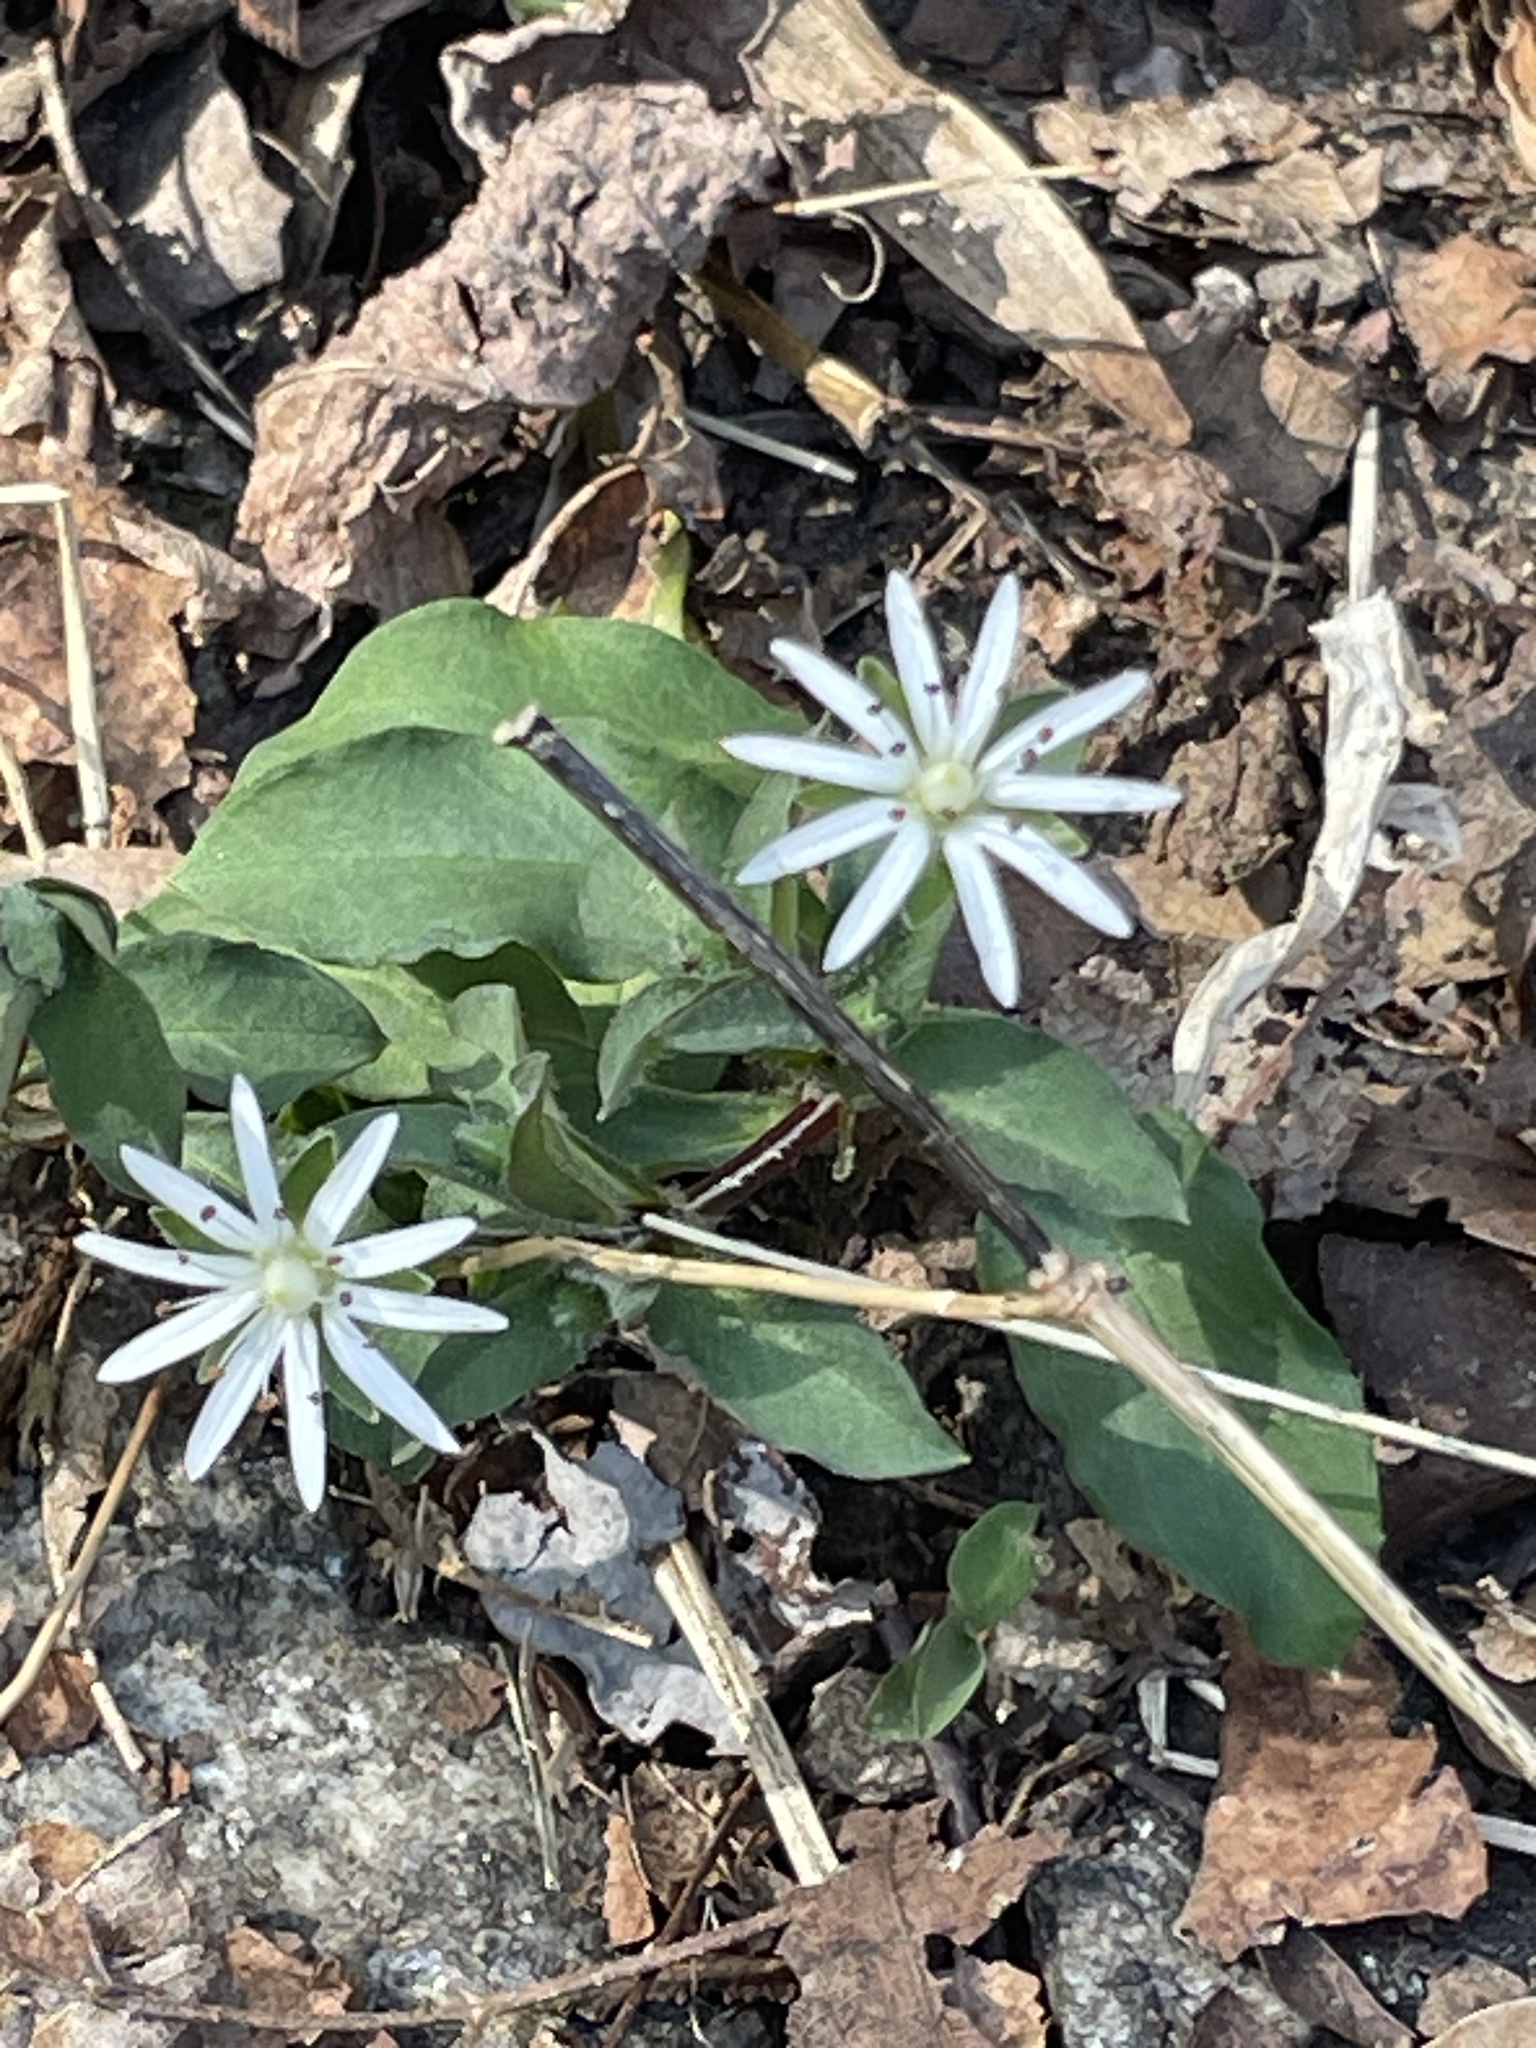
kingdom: Plantae
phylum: Tracheophyta
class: Magnoliopsida
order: Caryophyllales
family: Caryophyllaceae
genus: Stellaria
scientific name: Stellaria pubera
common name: Star chickweed
